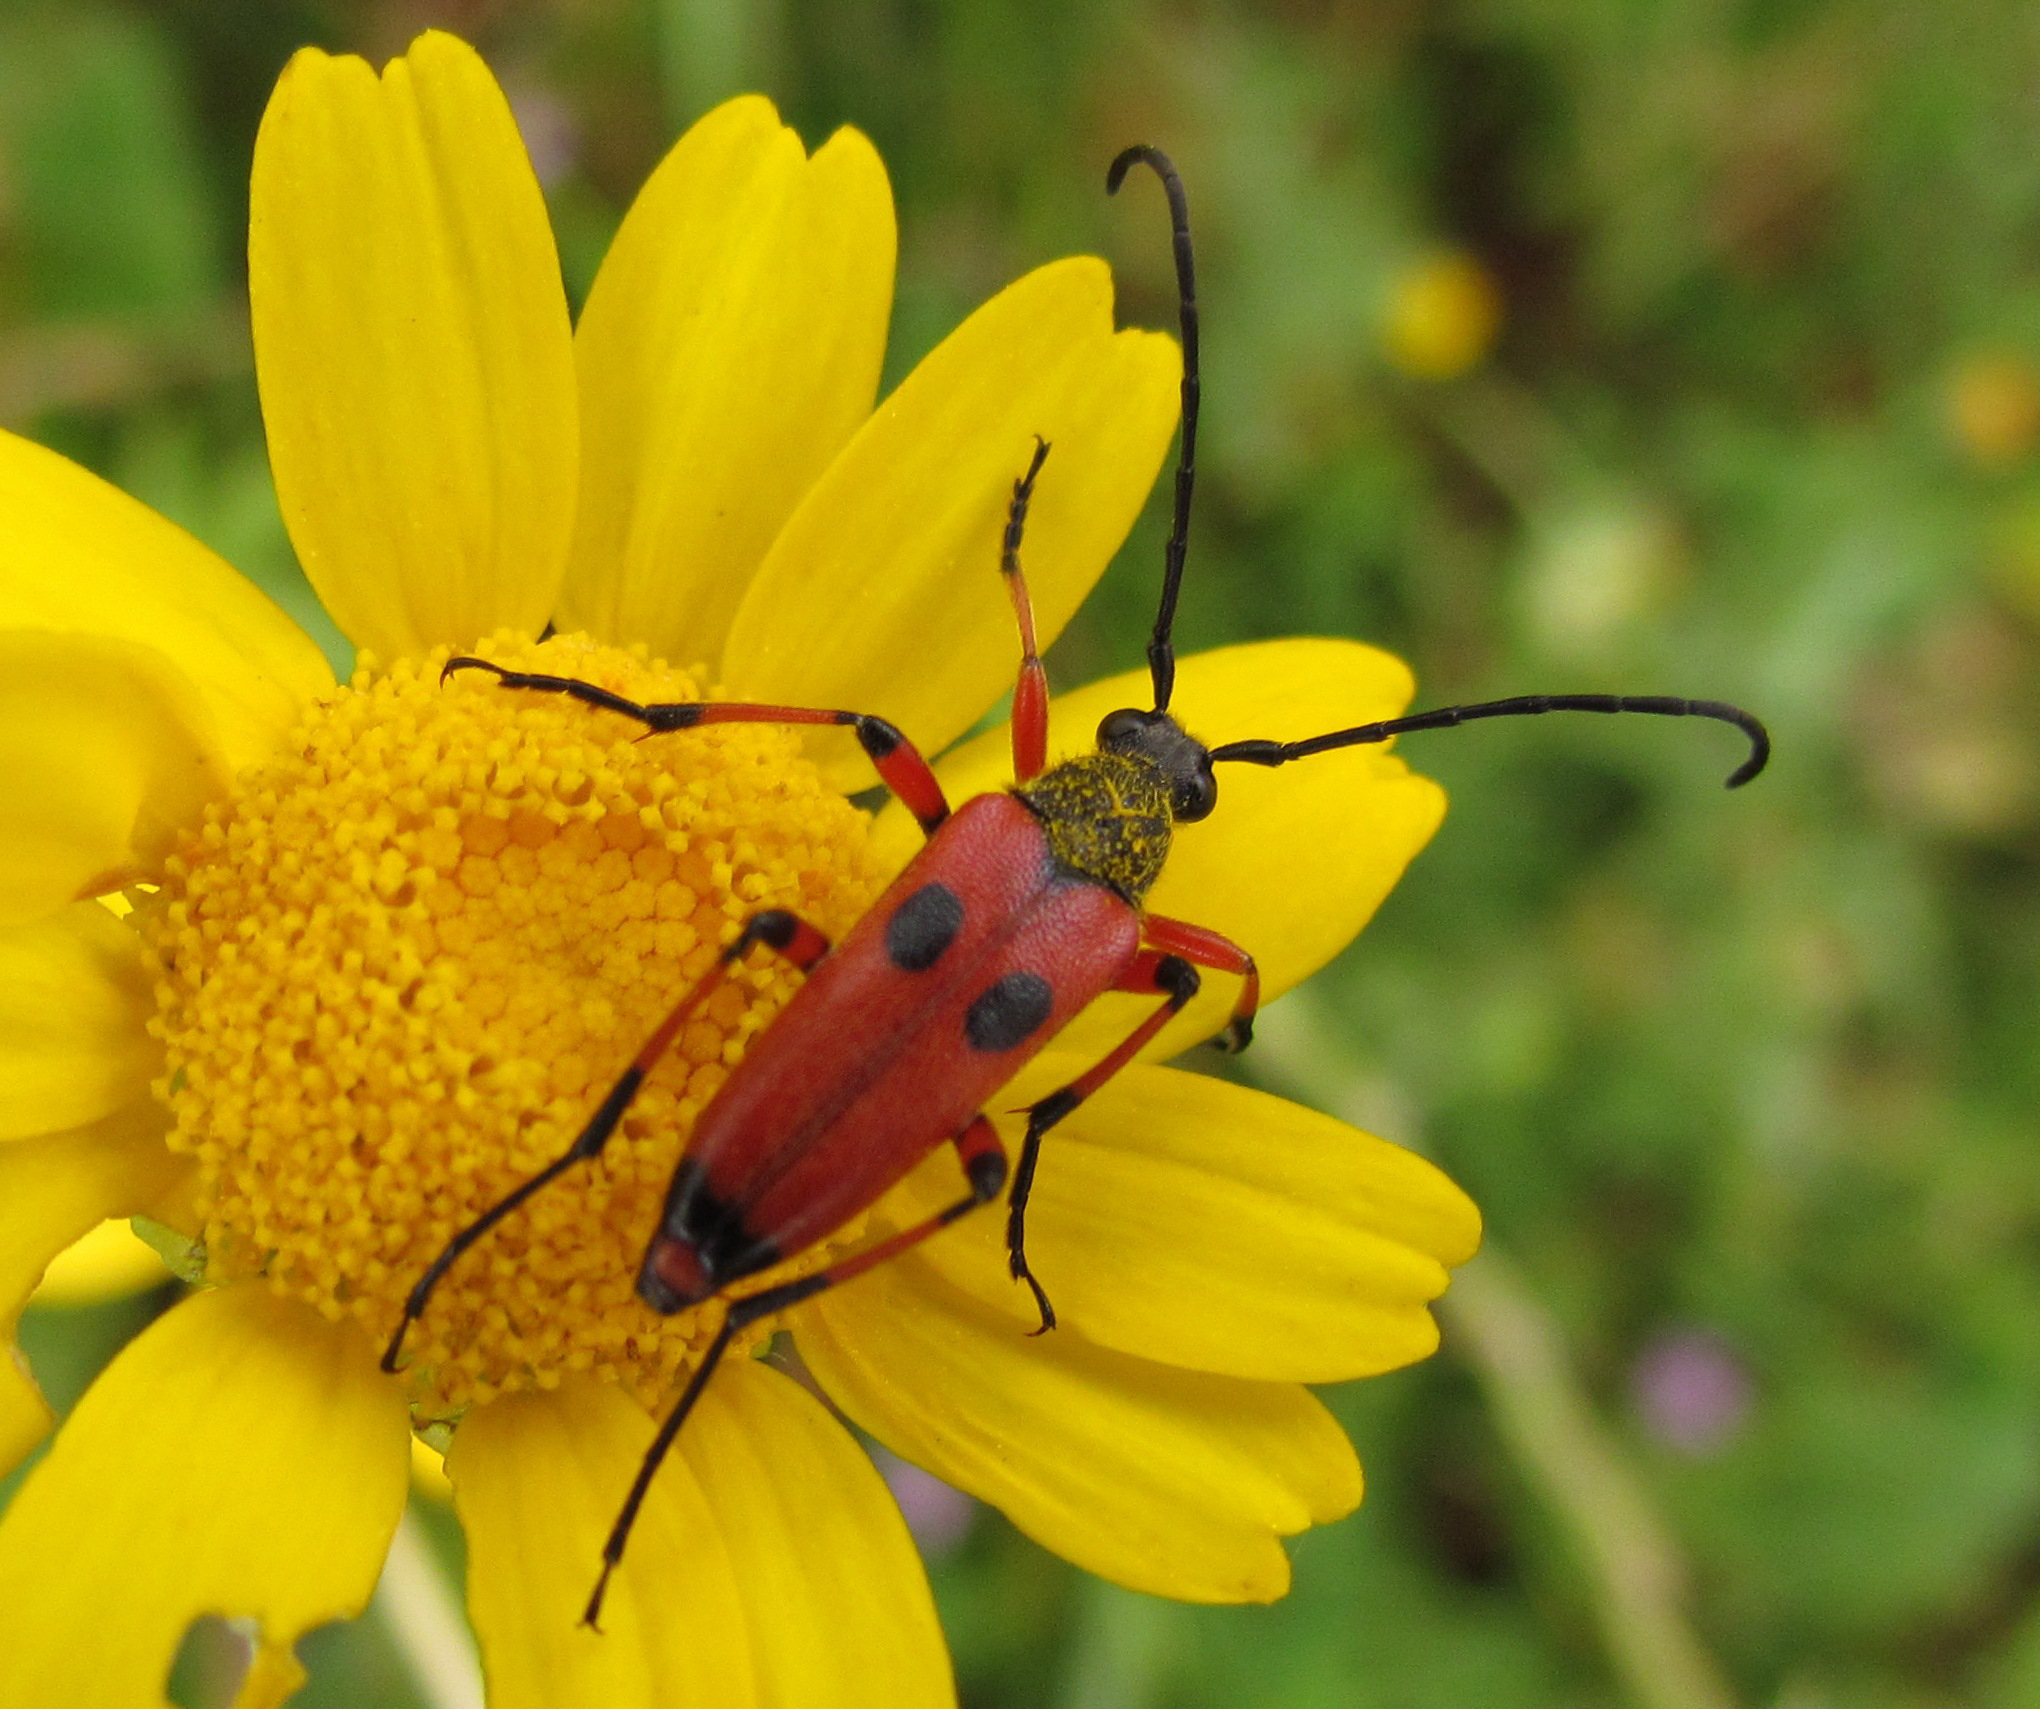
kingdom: Animalia
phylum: Arthropoda
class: Insecta
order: Coleoptera
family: Cerambycidae
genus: Nustera
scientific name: Nustera distigma
